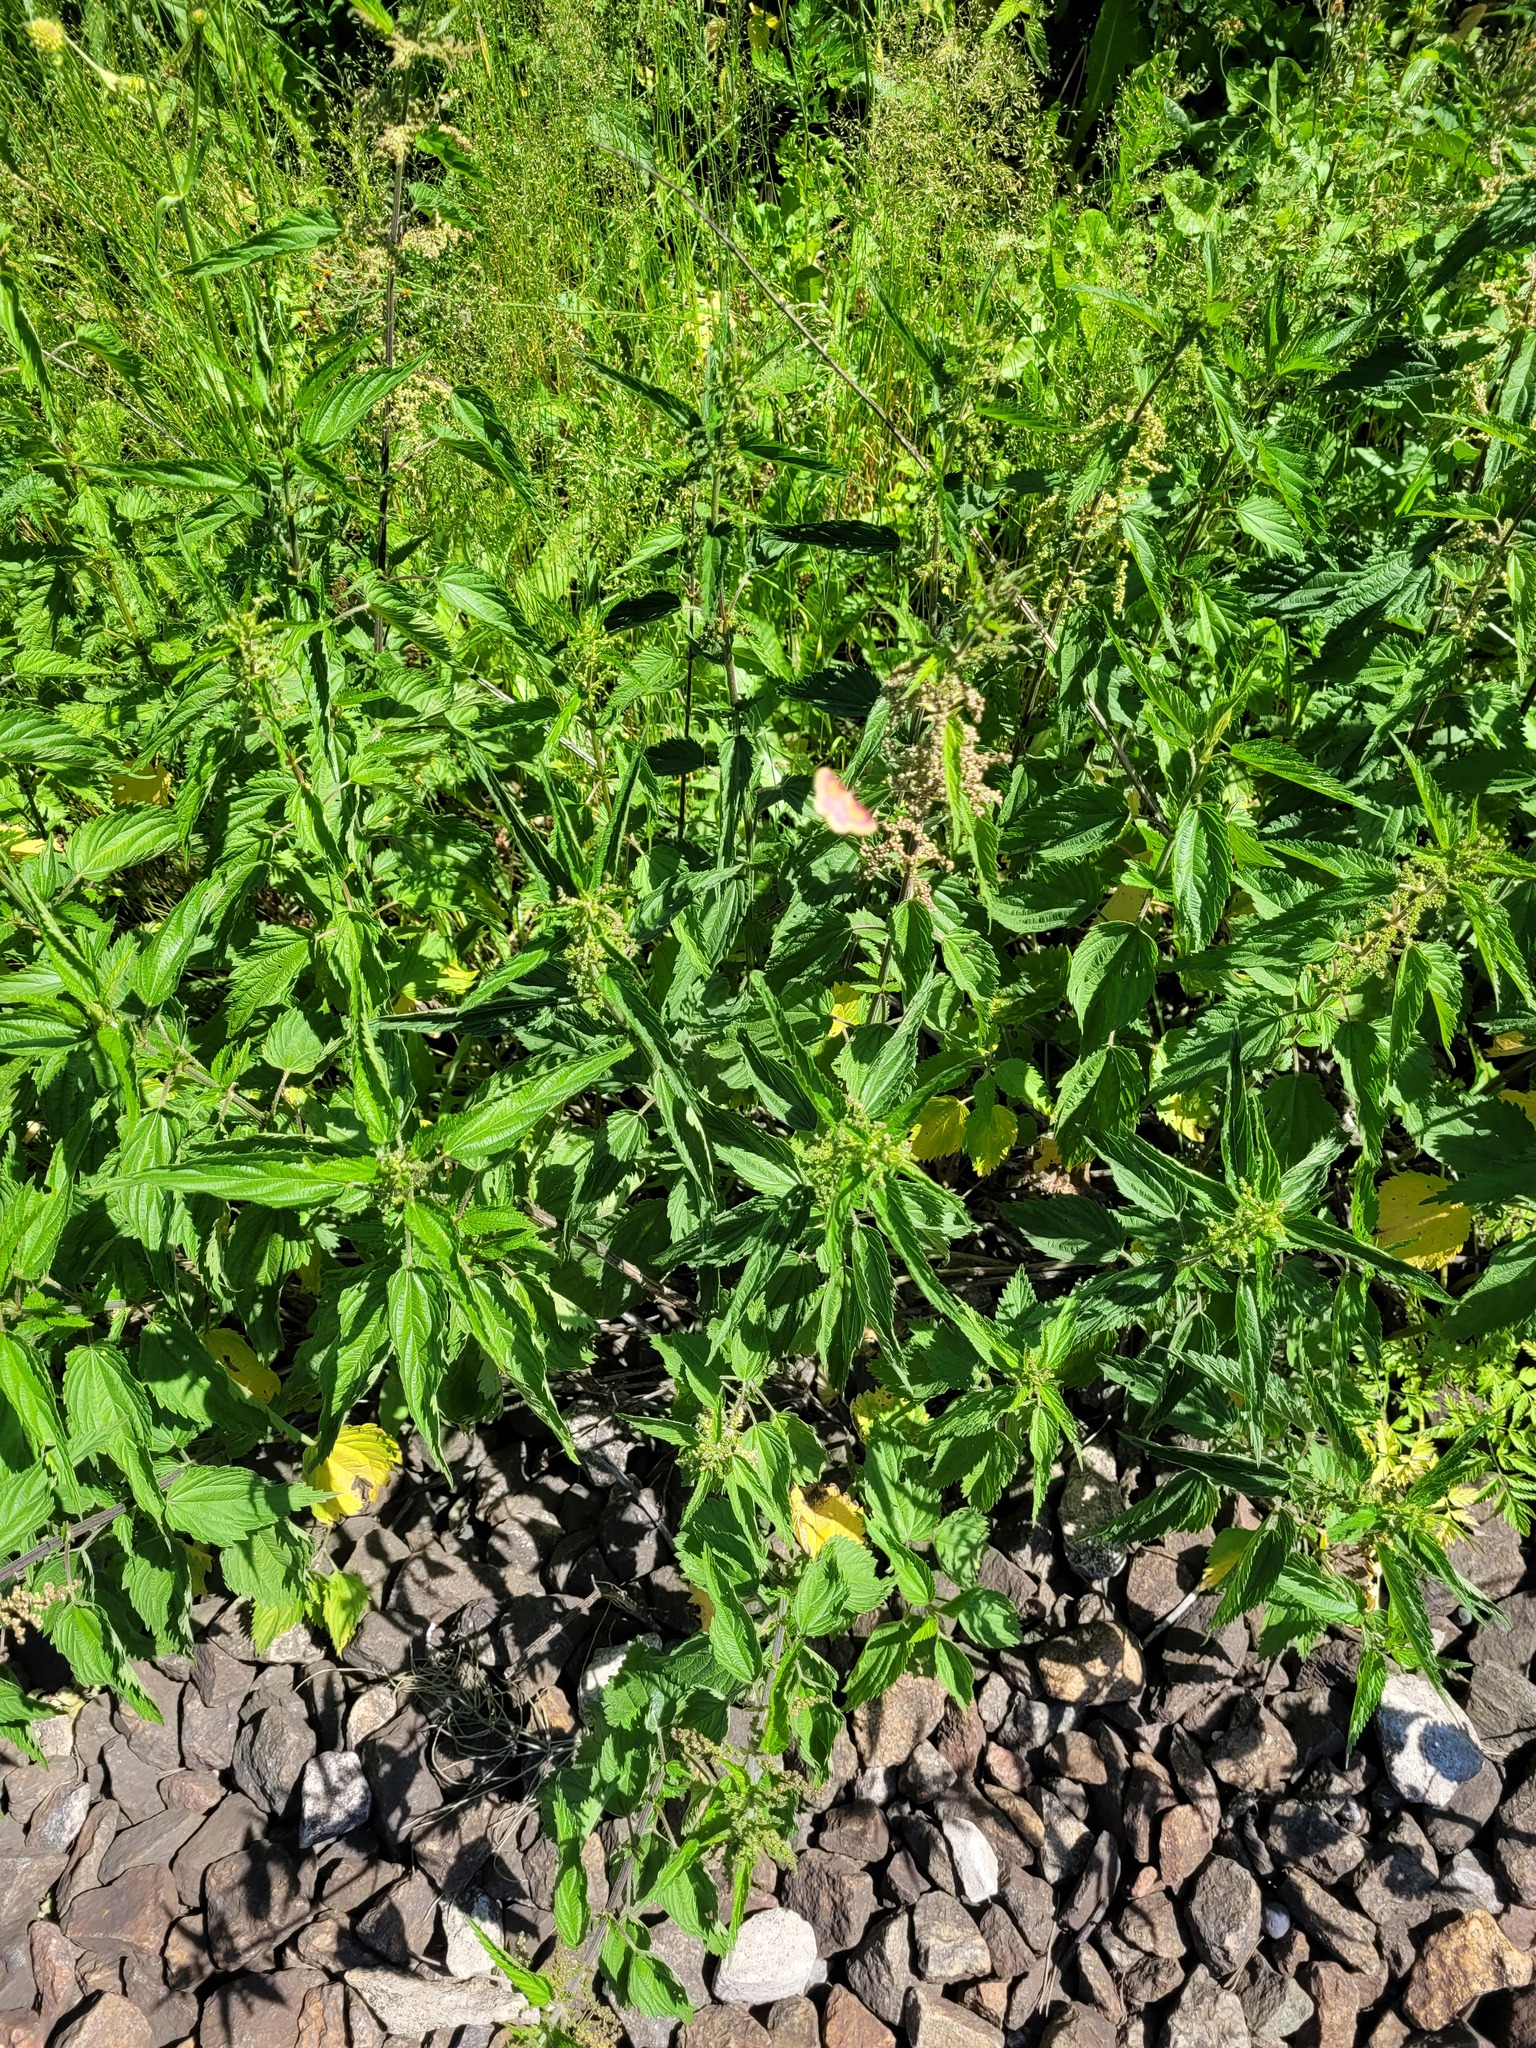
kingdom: Plantae
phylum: Tracheophyta
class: Magnoliopsida
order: Rosales
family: Urticaceae
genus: Urtica
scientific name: Urtica dioica
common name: Common nettle
